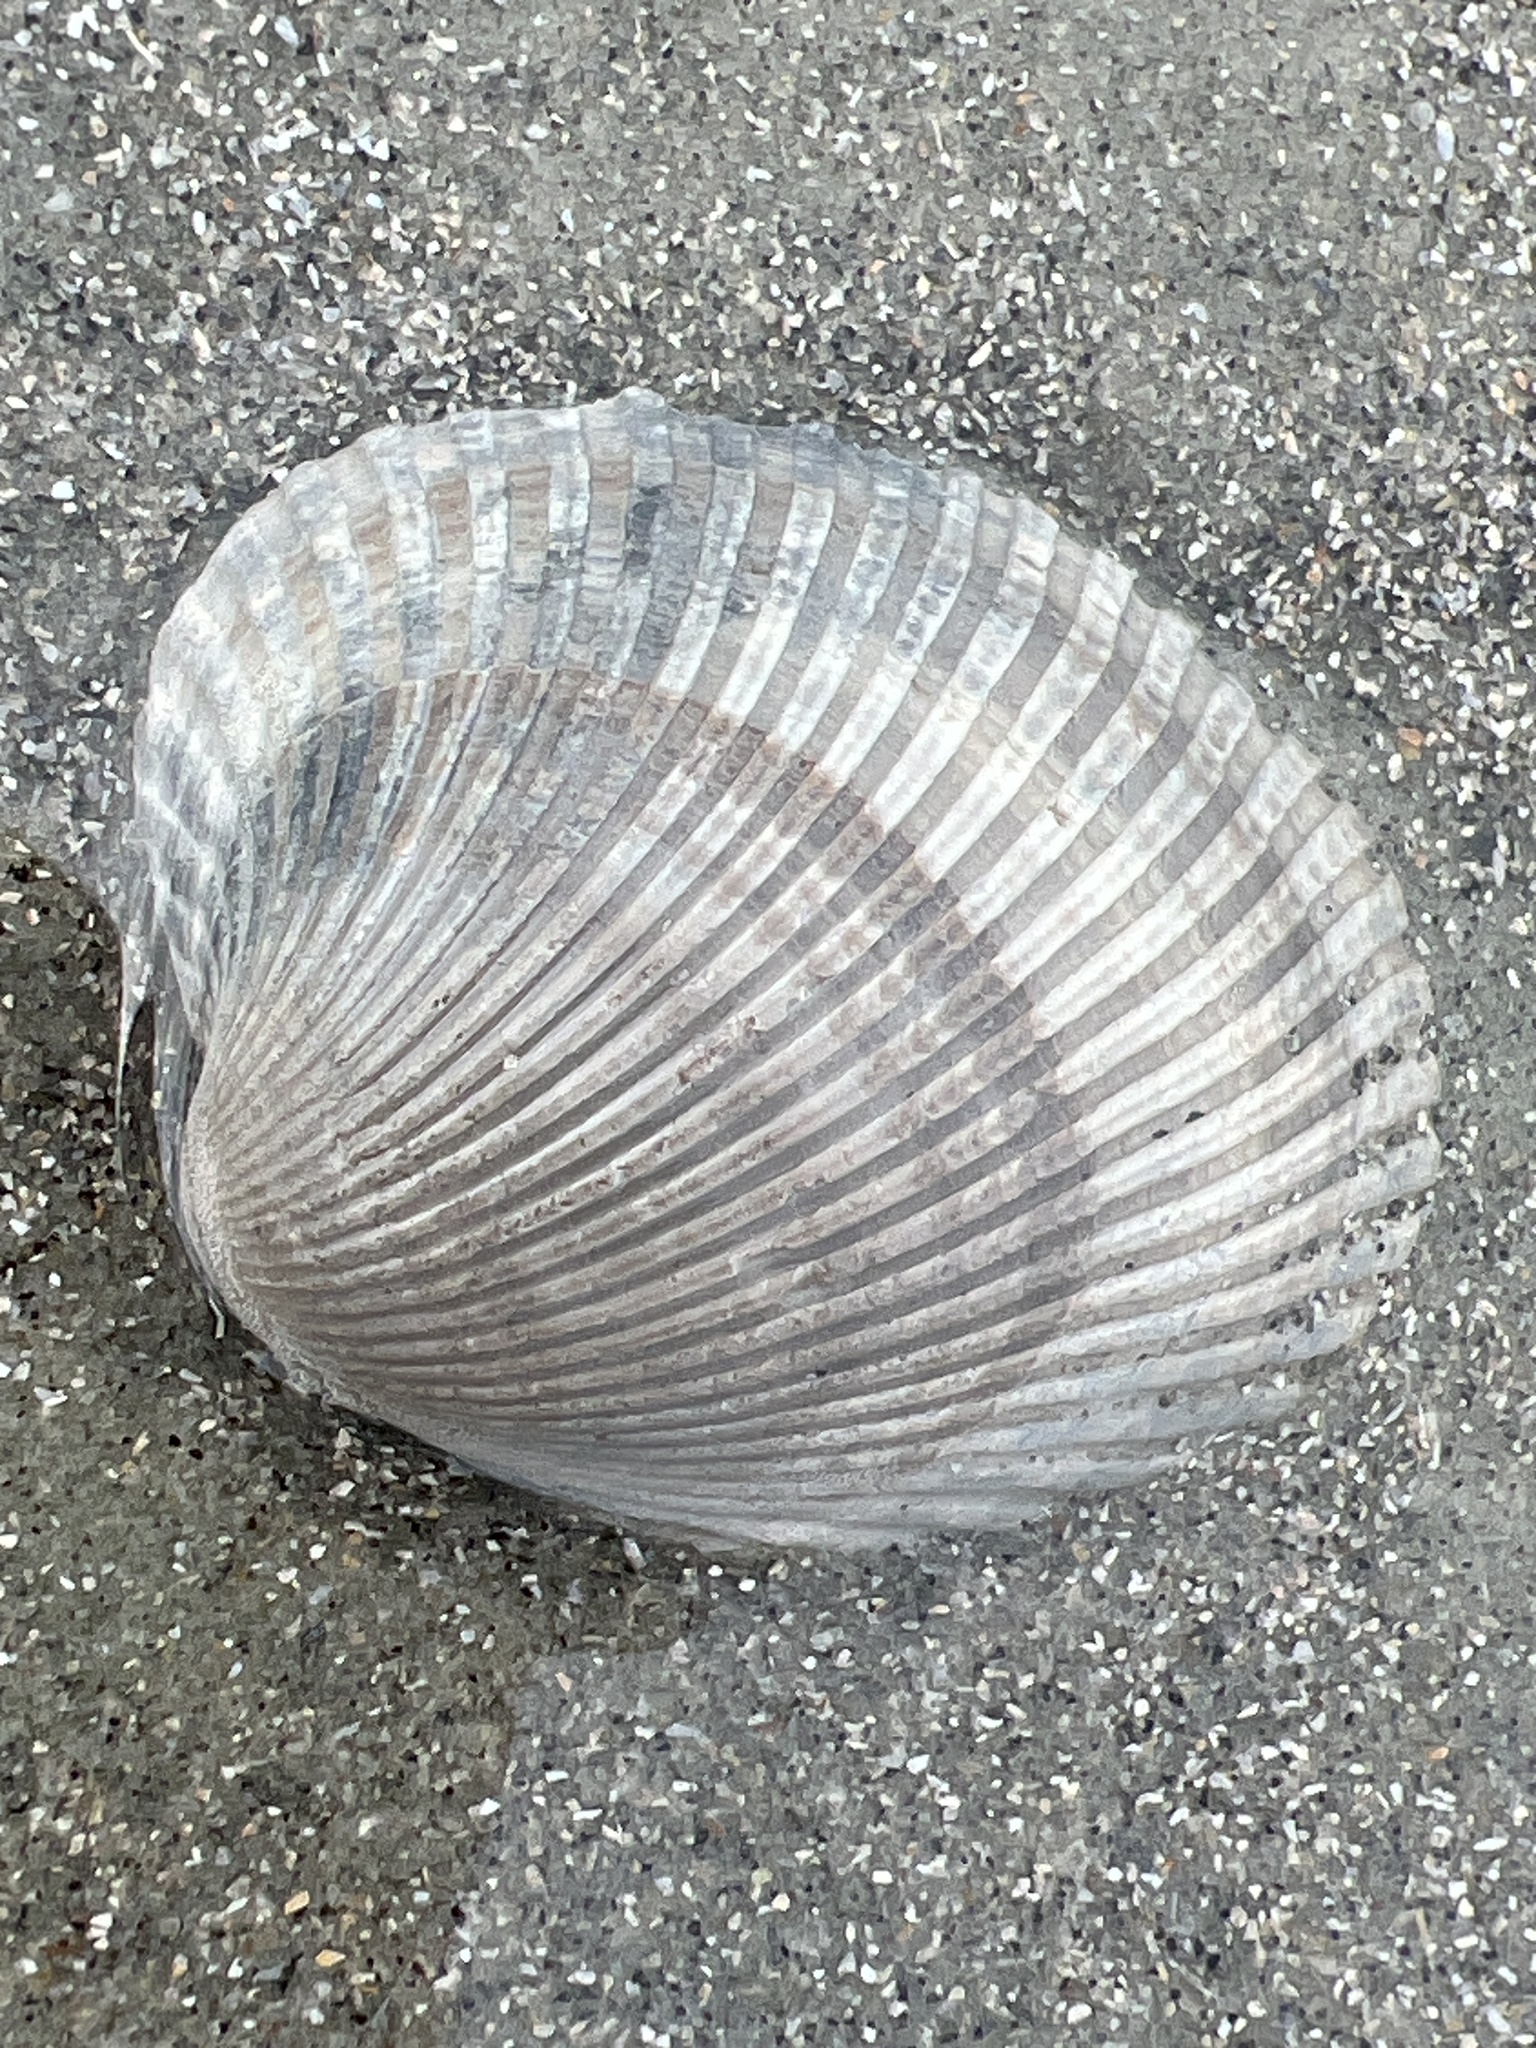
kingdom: Animalia
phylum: Mollusca
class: Bivalvia
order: Arcida
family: Arcidae
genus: Lunarca
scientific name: Lunarca ovalis
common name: Blood ark
